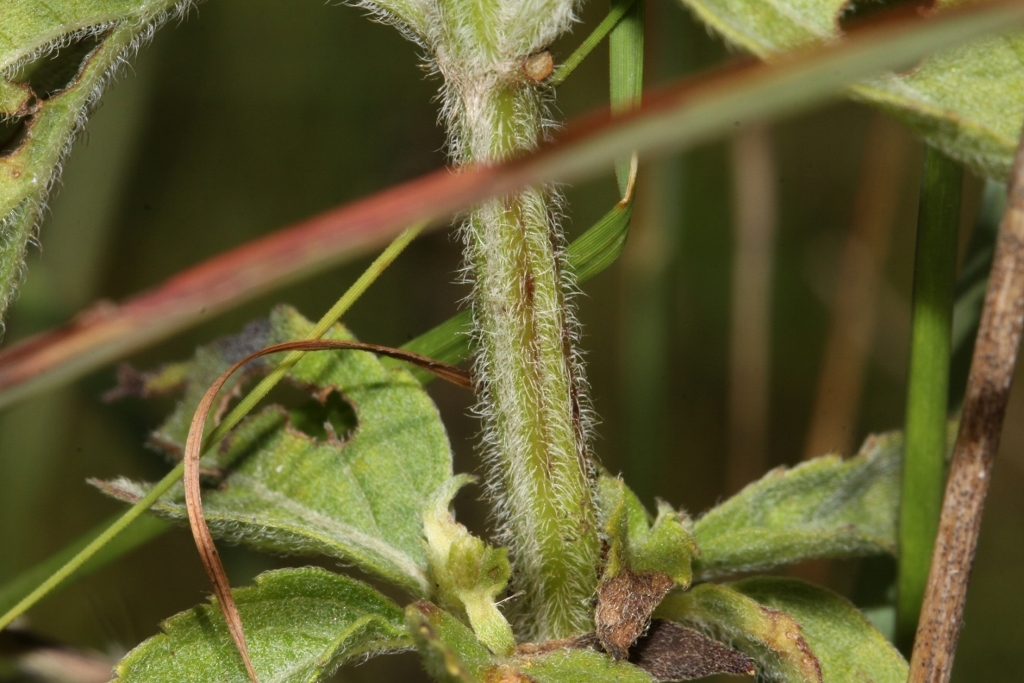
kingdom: Plantae
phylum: Tracheophyta
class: Magnoliopsida
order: Lamiales
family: Lamiaceae
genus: Ocimum
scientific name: Ocimum gratissimum
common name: African basil
